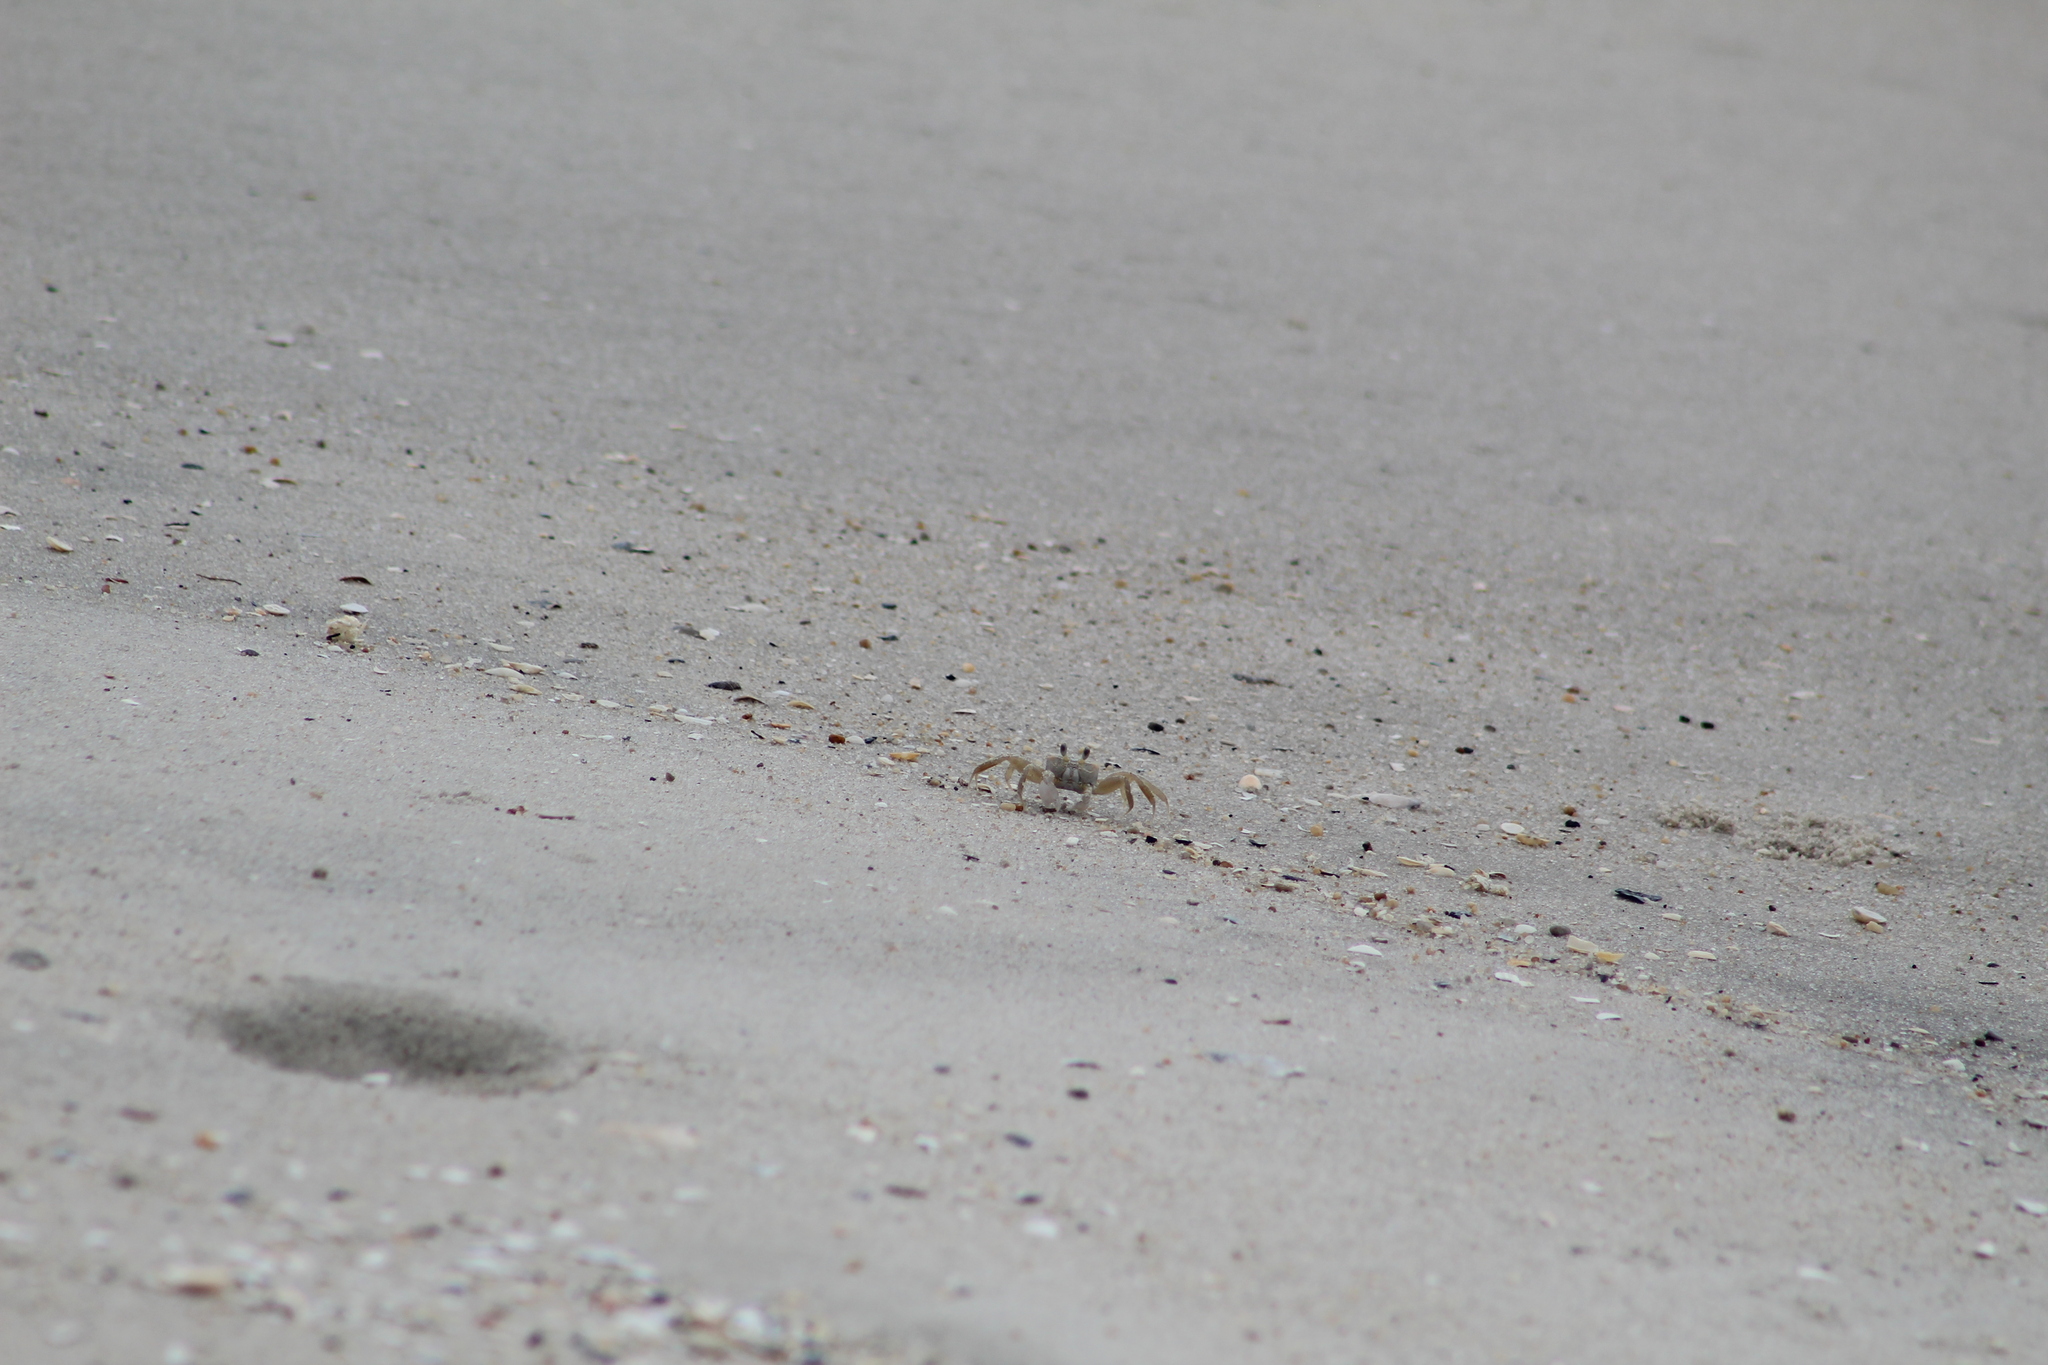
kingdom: Animalia
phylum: Arthropoda
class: Malacostraca
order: Decapoda
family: Ocypodidae
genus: Ocypode
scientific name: Ocypode quadrata
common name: Ghost crab
